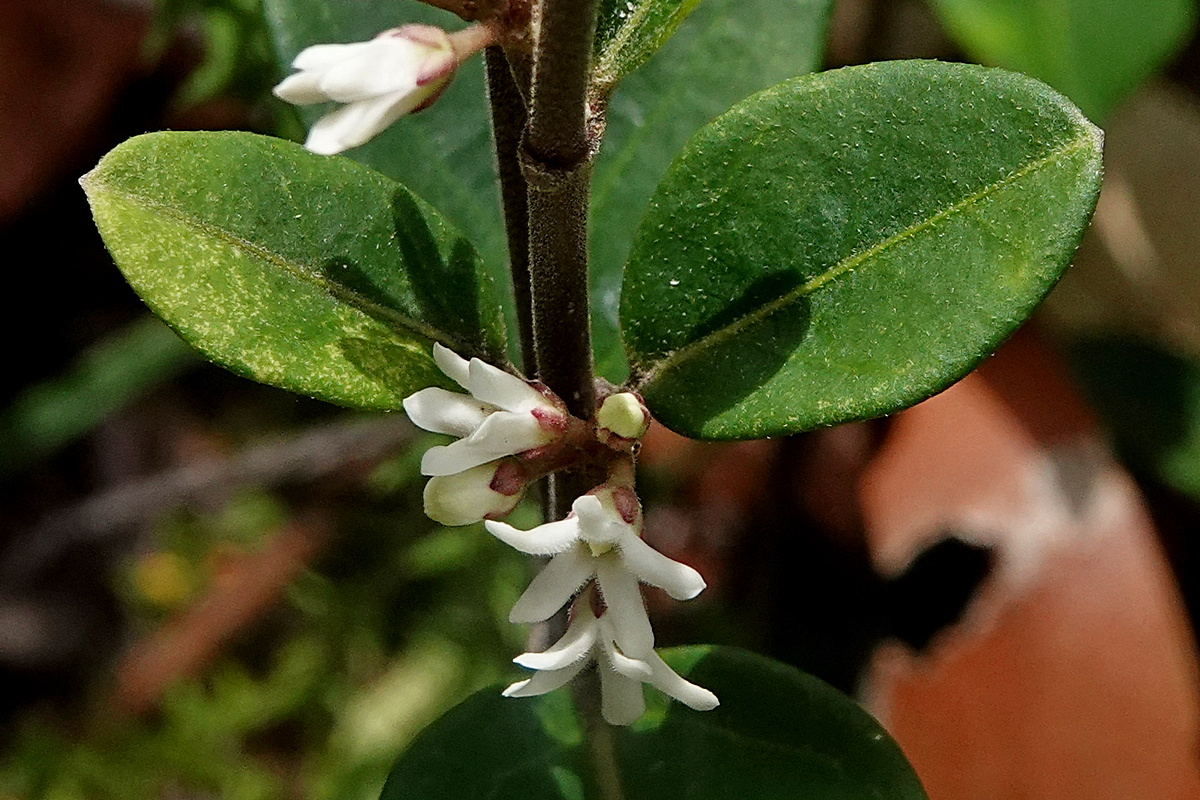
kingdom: Plantae
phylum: Tracheophyta
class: Magnoliopsida
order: Gentianales
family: Apocynaceae
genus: Leichhardtia
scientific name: Leichhardtia suaveolens
